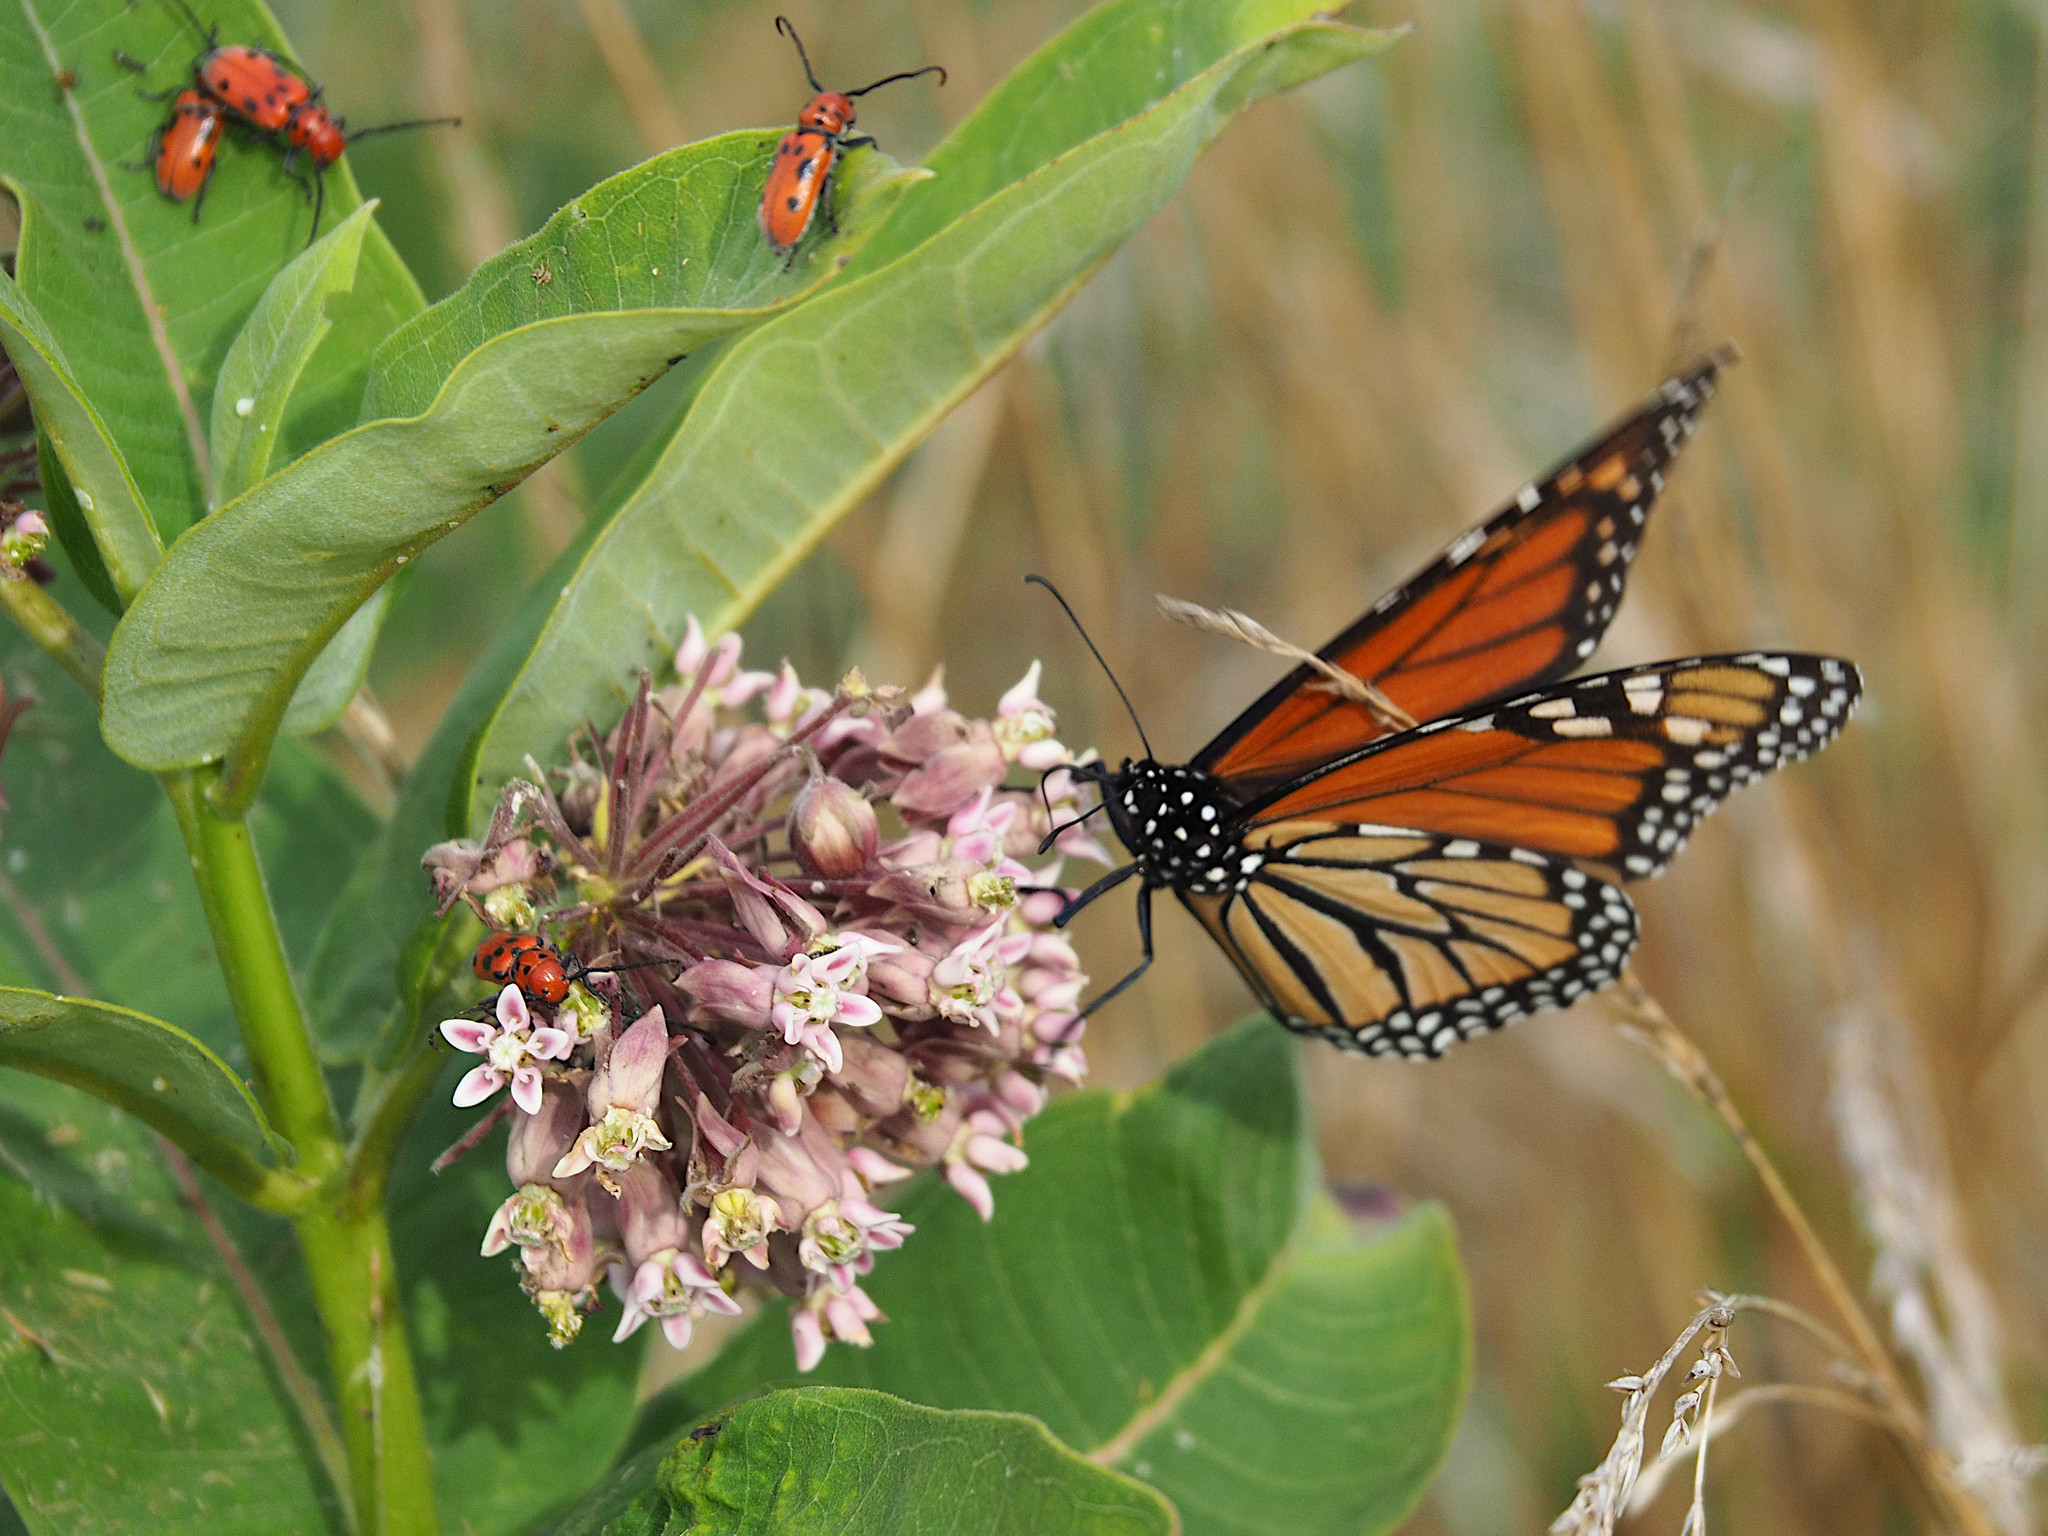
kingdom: Animalia
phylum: Arthropoda
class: Insecta
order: Lepidoptera
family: Nymphalidae
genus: Danaus
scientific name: Danaus plexippus
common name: Monarch
